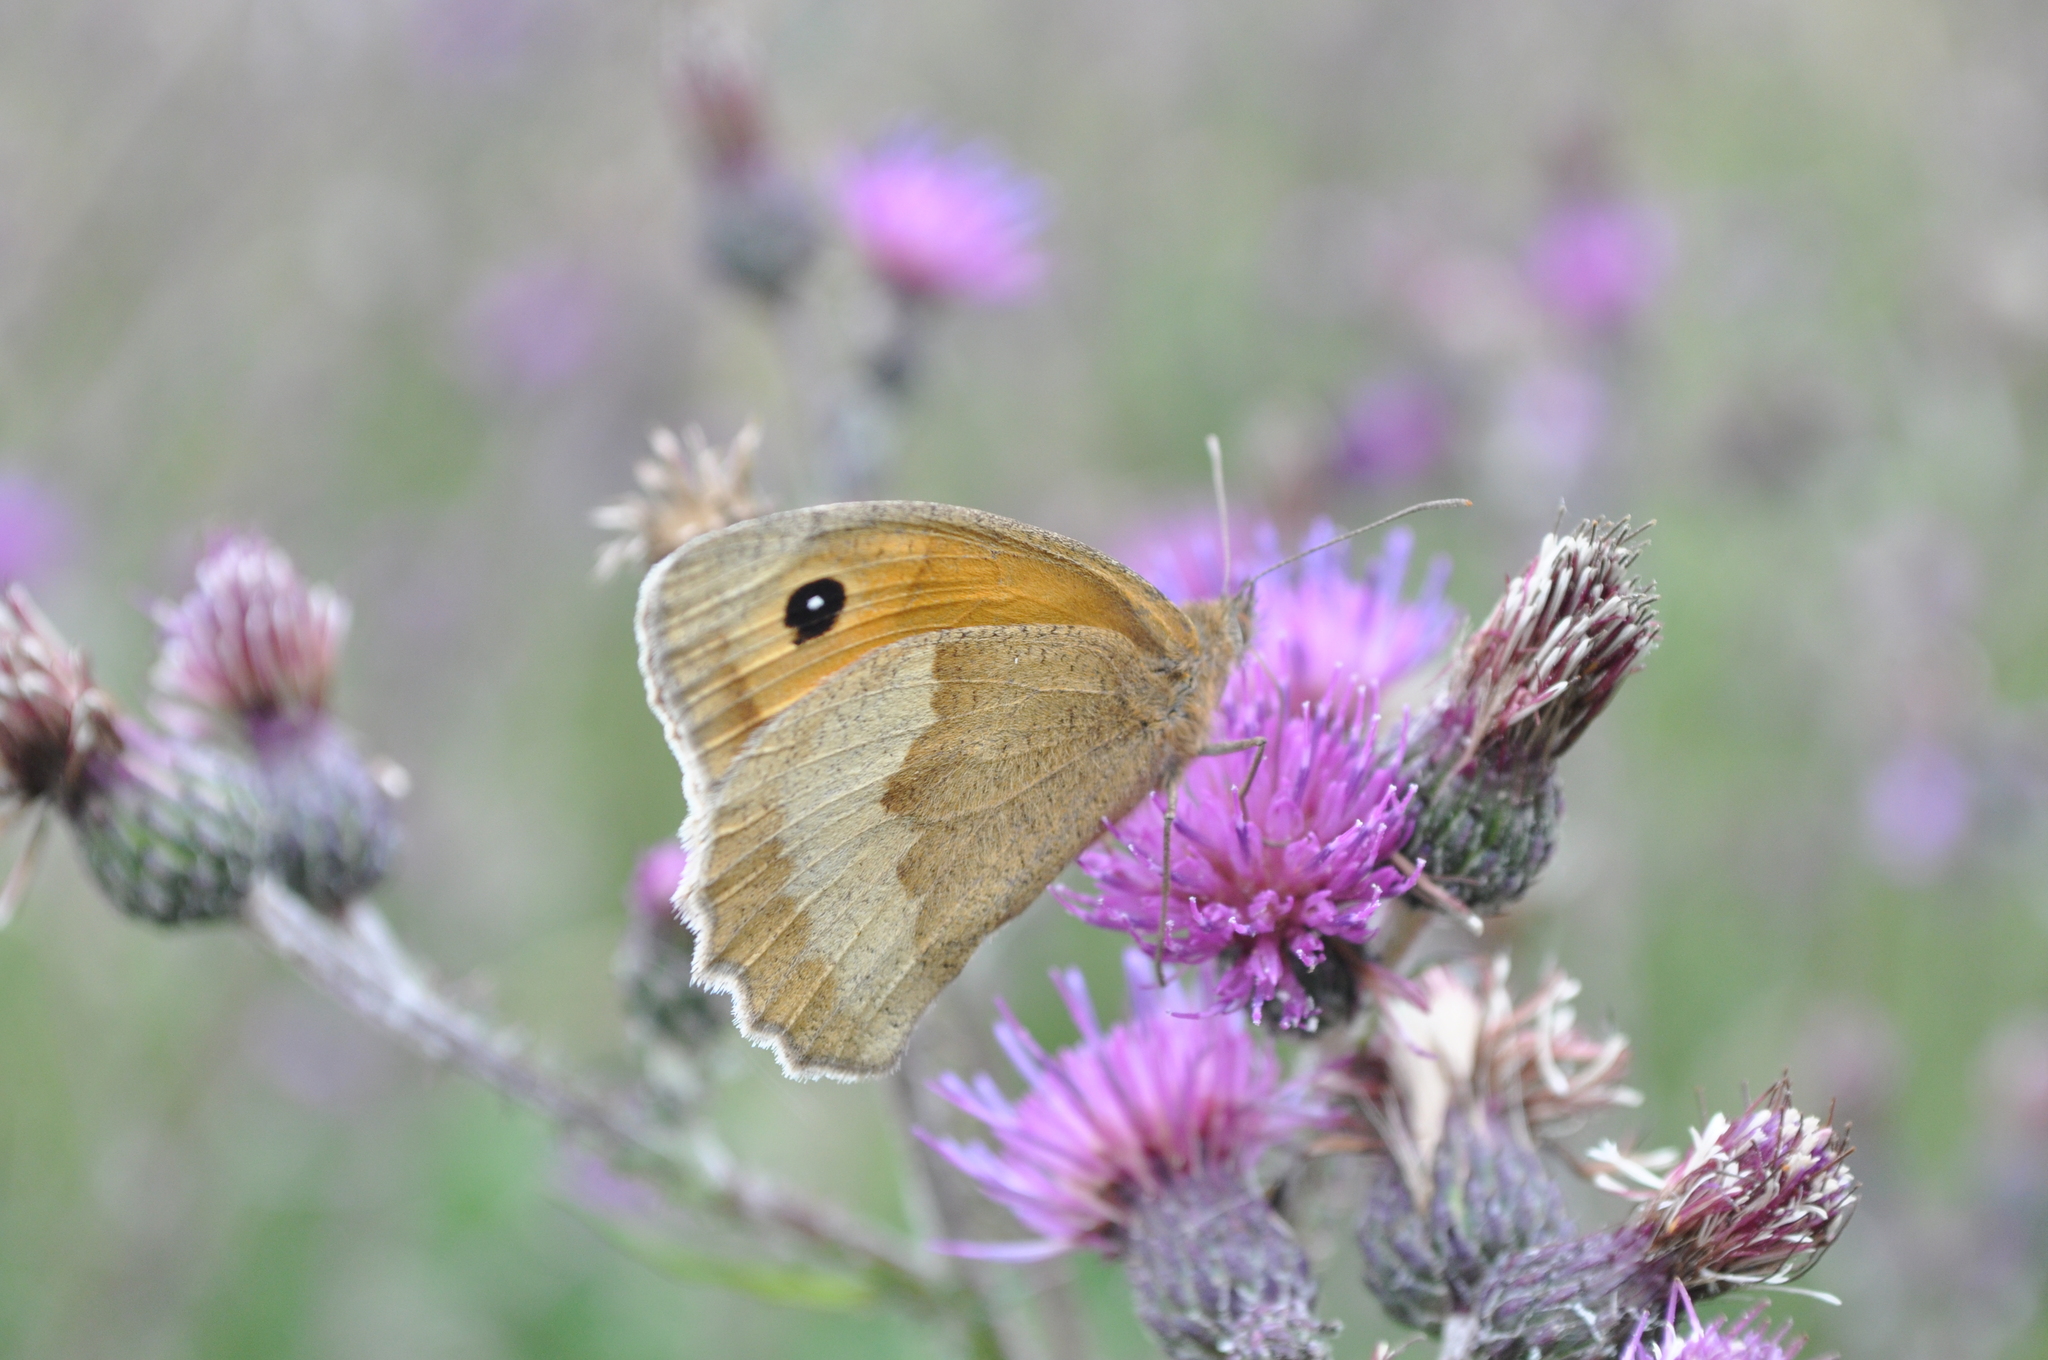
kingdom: Animalia
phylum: Arthropoda
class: Insecta
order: Lepidoptera
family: Nymphalidae
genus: Maniola
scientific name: Maniola jurtina
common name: Meadow brown
